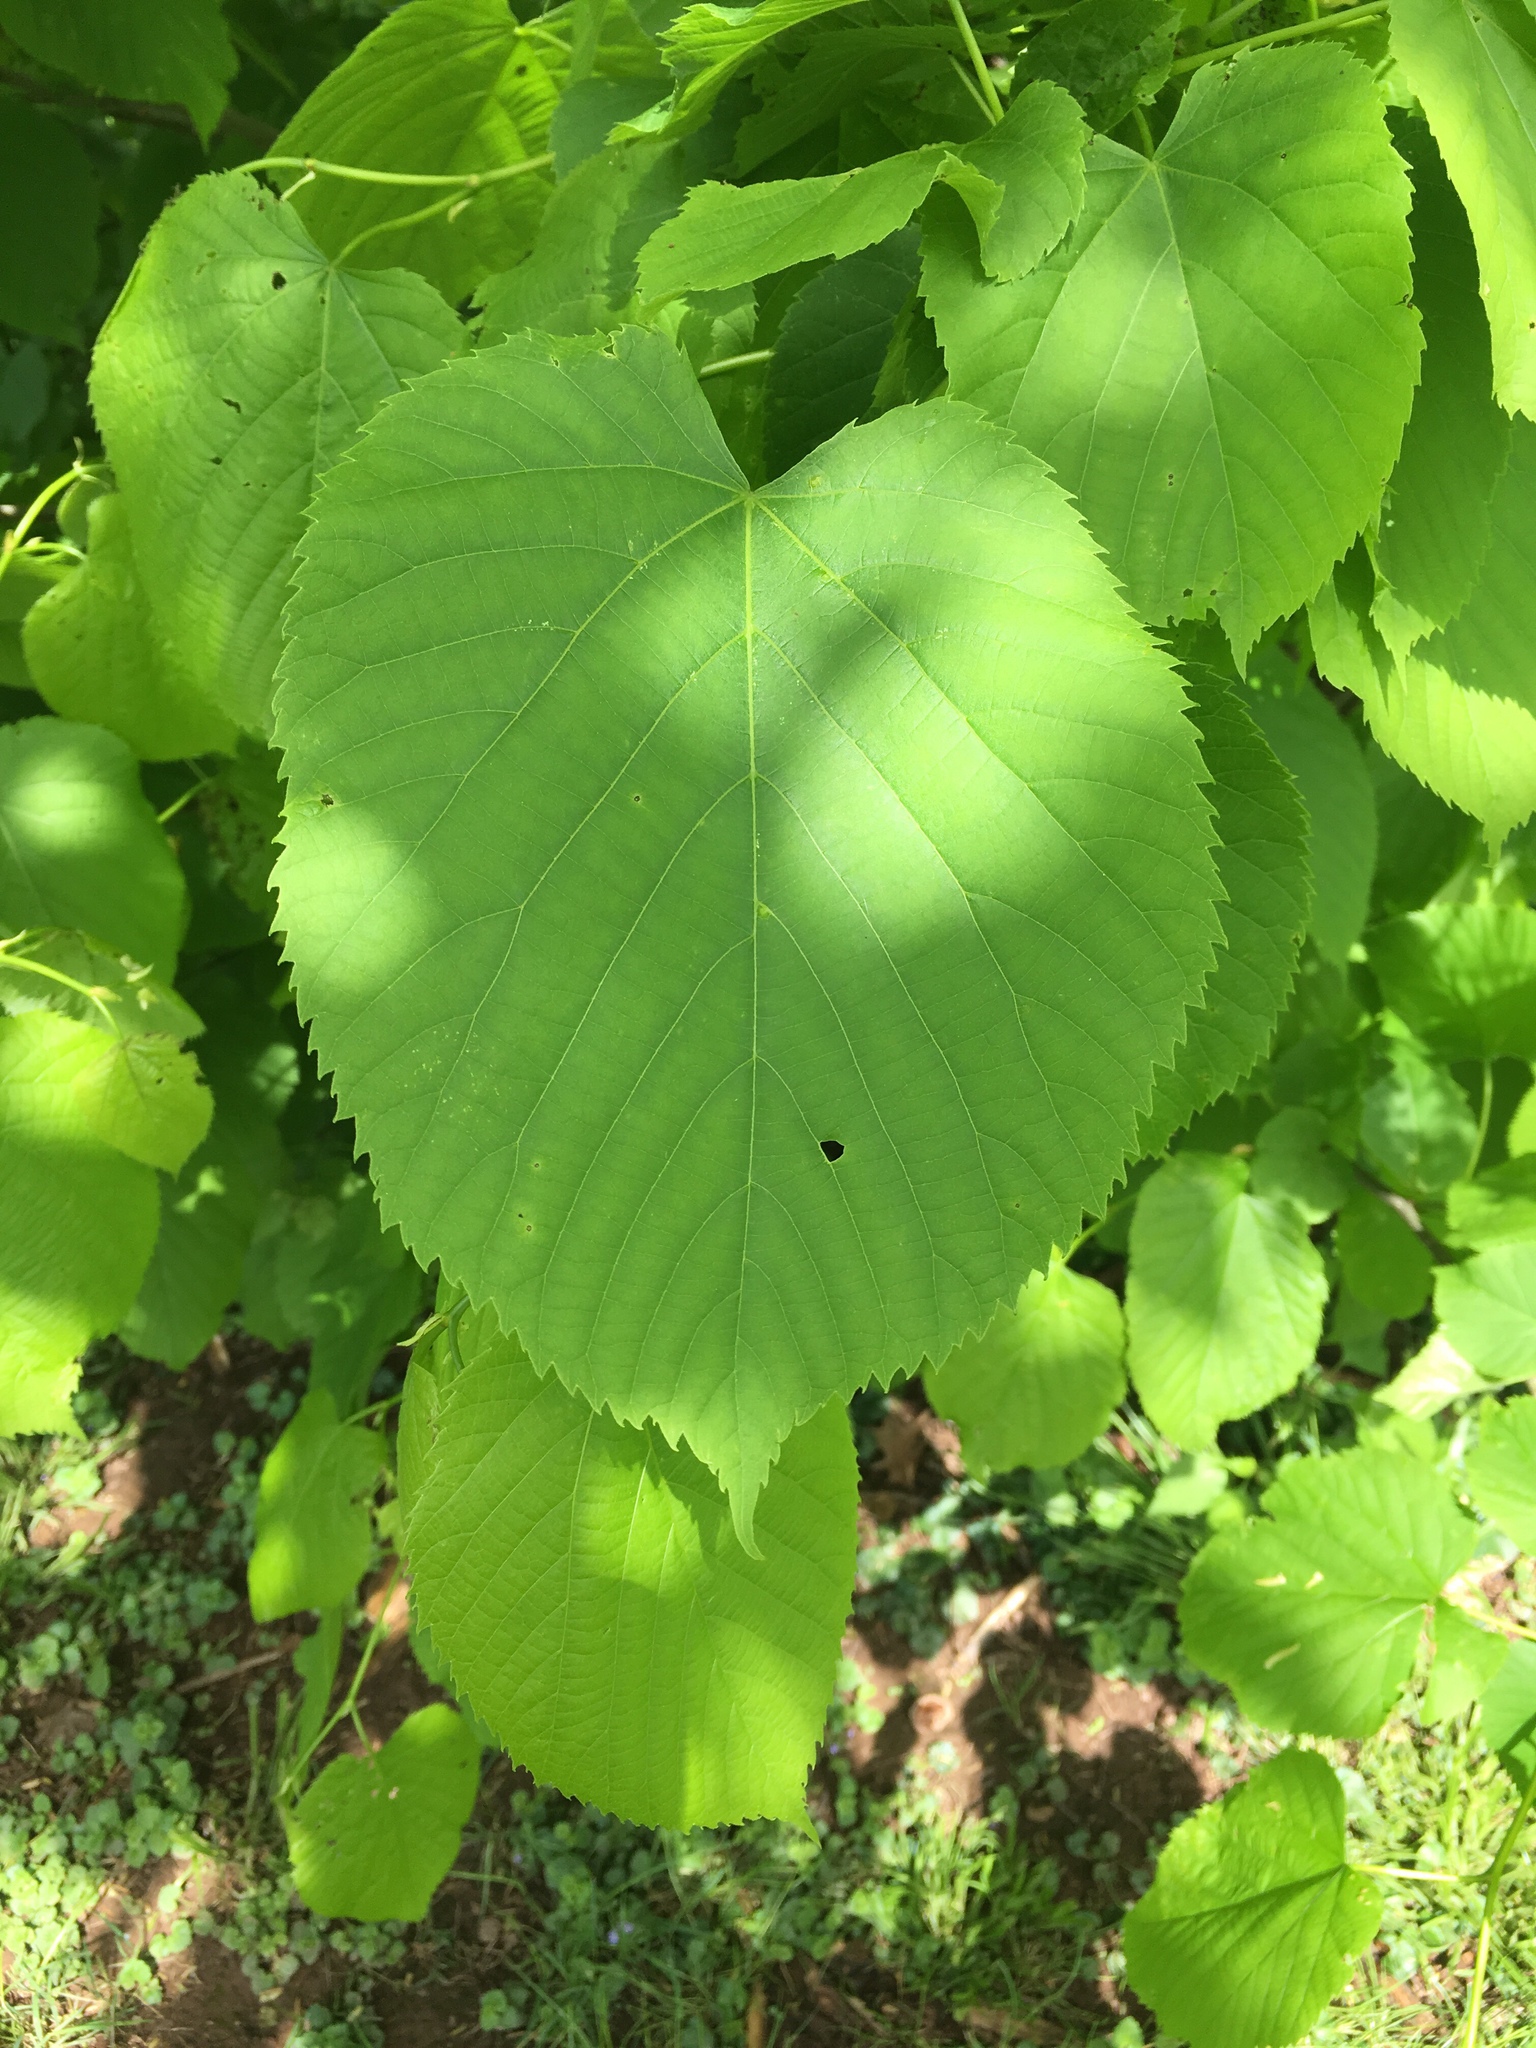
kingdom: Plantae
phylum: Tracheophyta
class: Magnoliopsida
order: Malvales
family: Malvaceae
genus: Tilia
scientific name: Tilia americana
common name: Basswood
